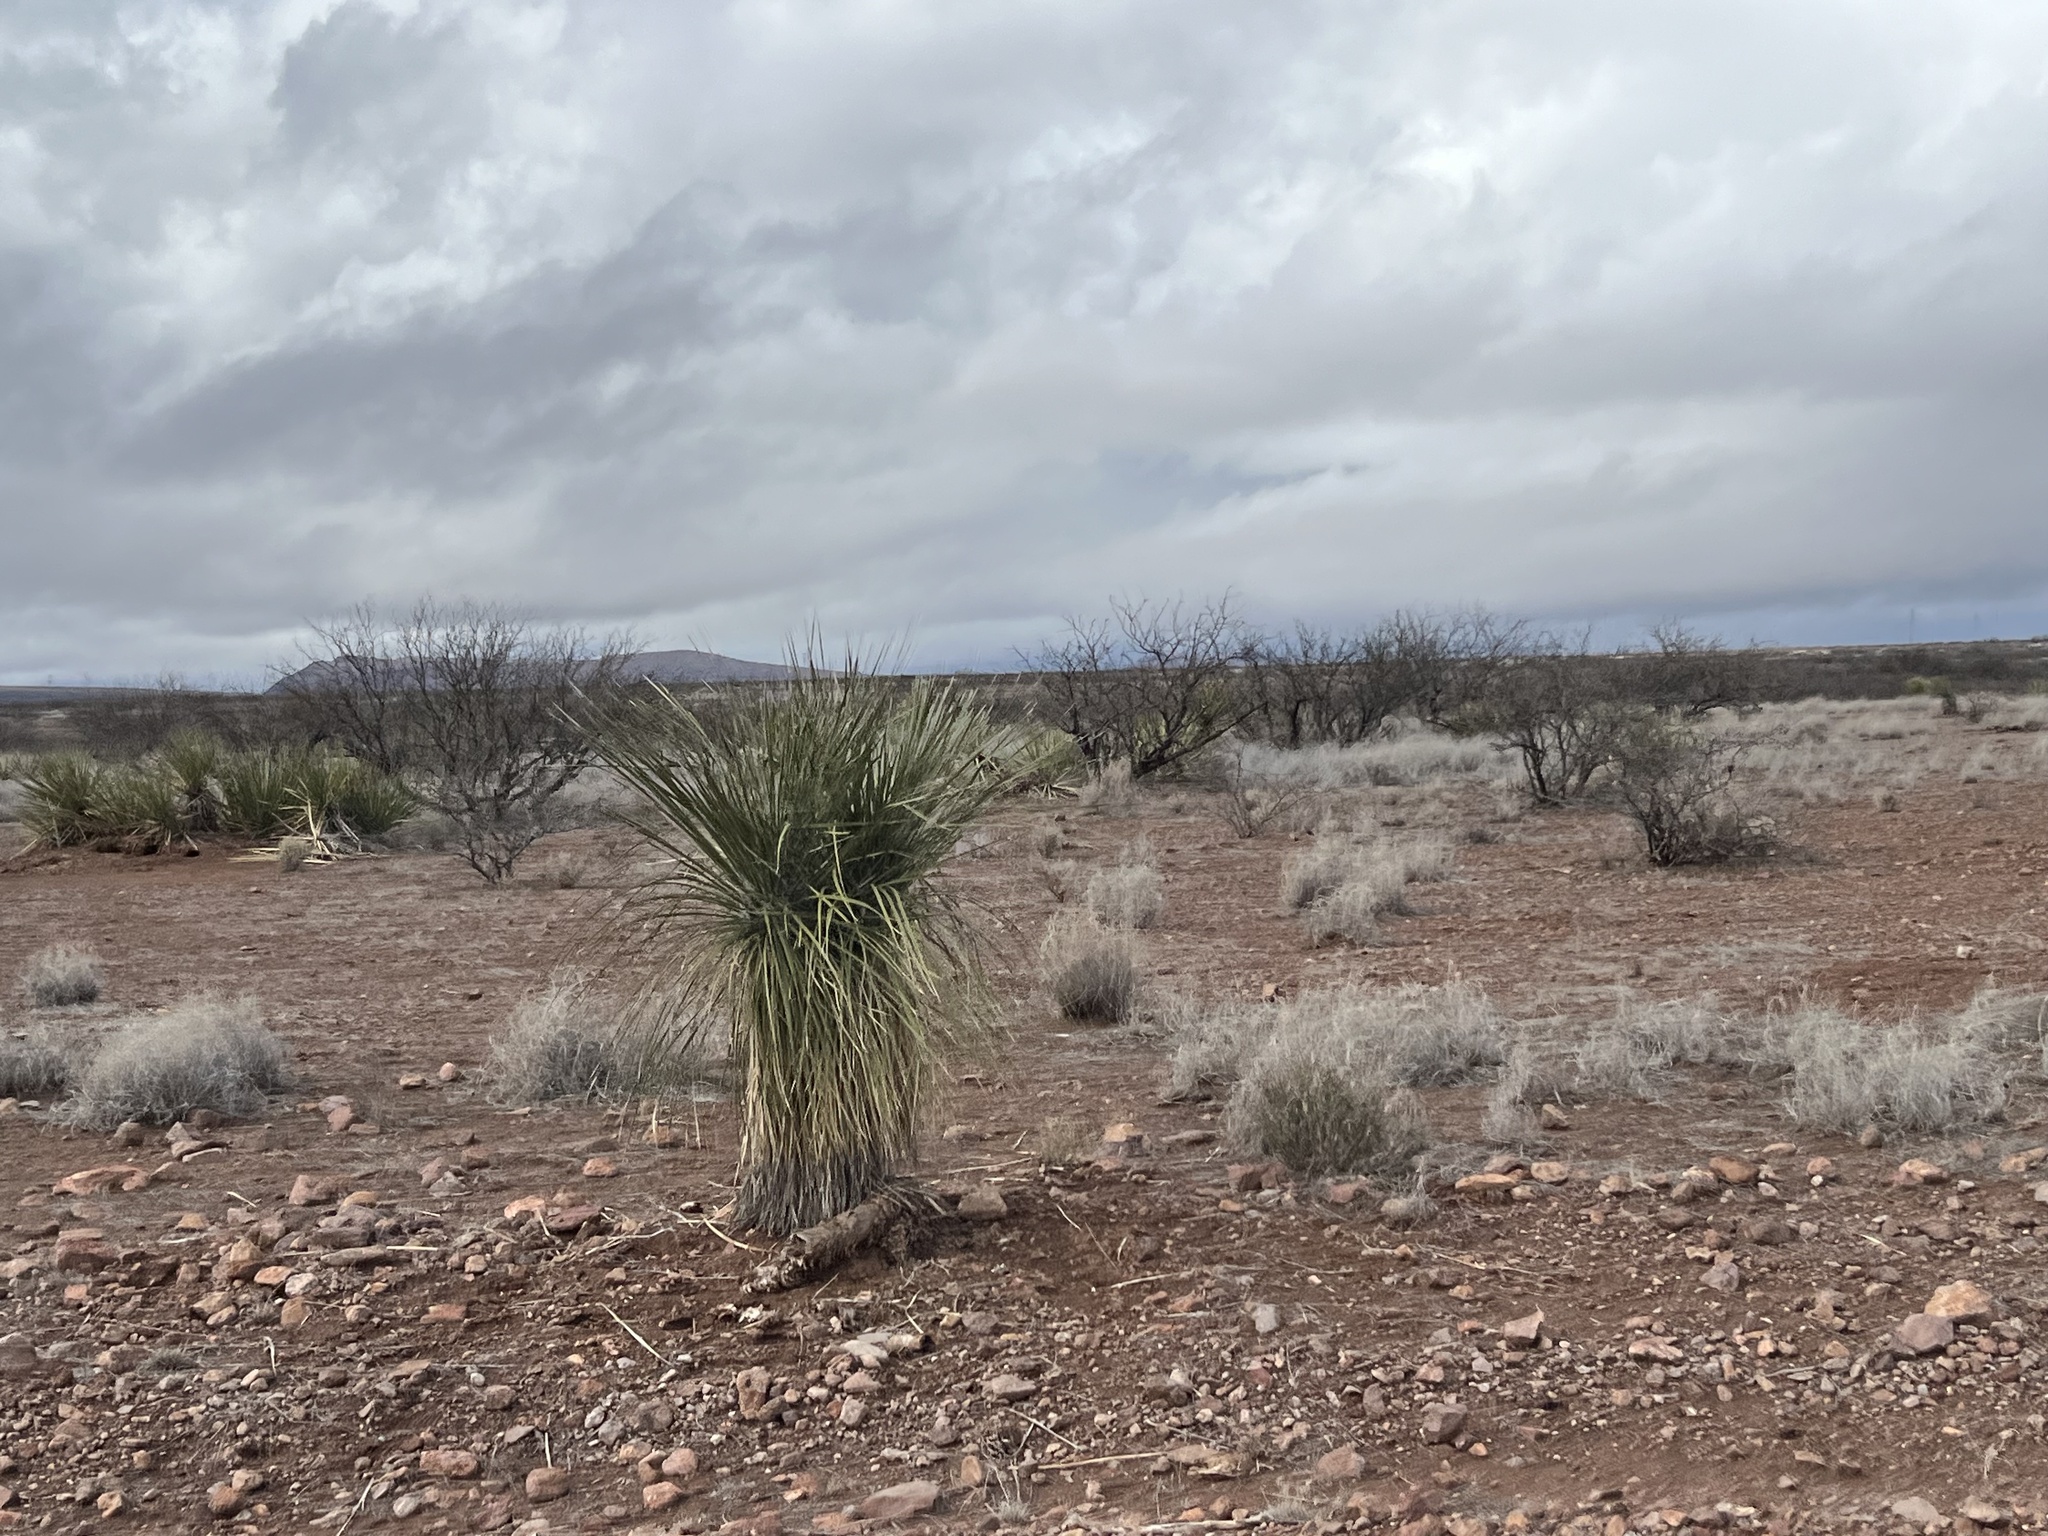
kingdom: Plantae
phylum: Tracheophyta
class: Liliopsida
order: Asparagales
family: Asparagaceae
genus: Yucca
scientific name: Yucca elata
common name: Palmella
